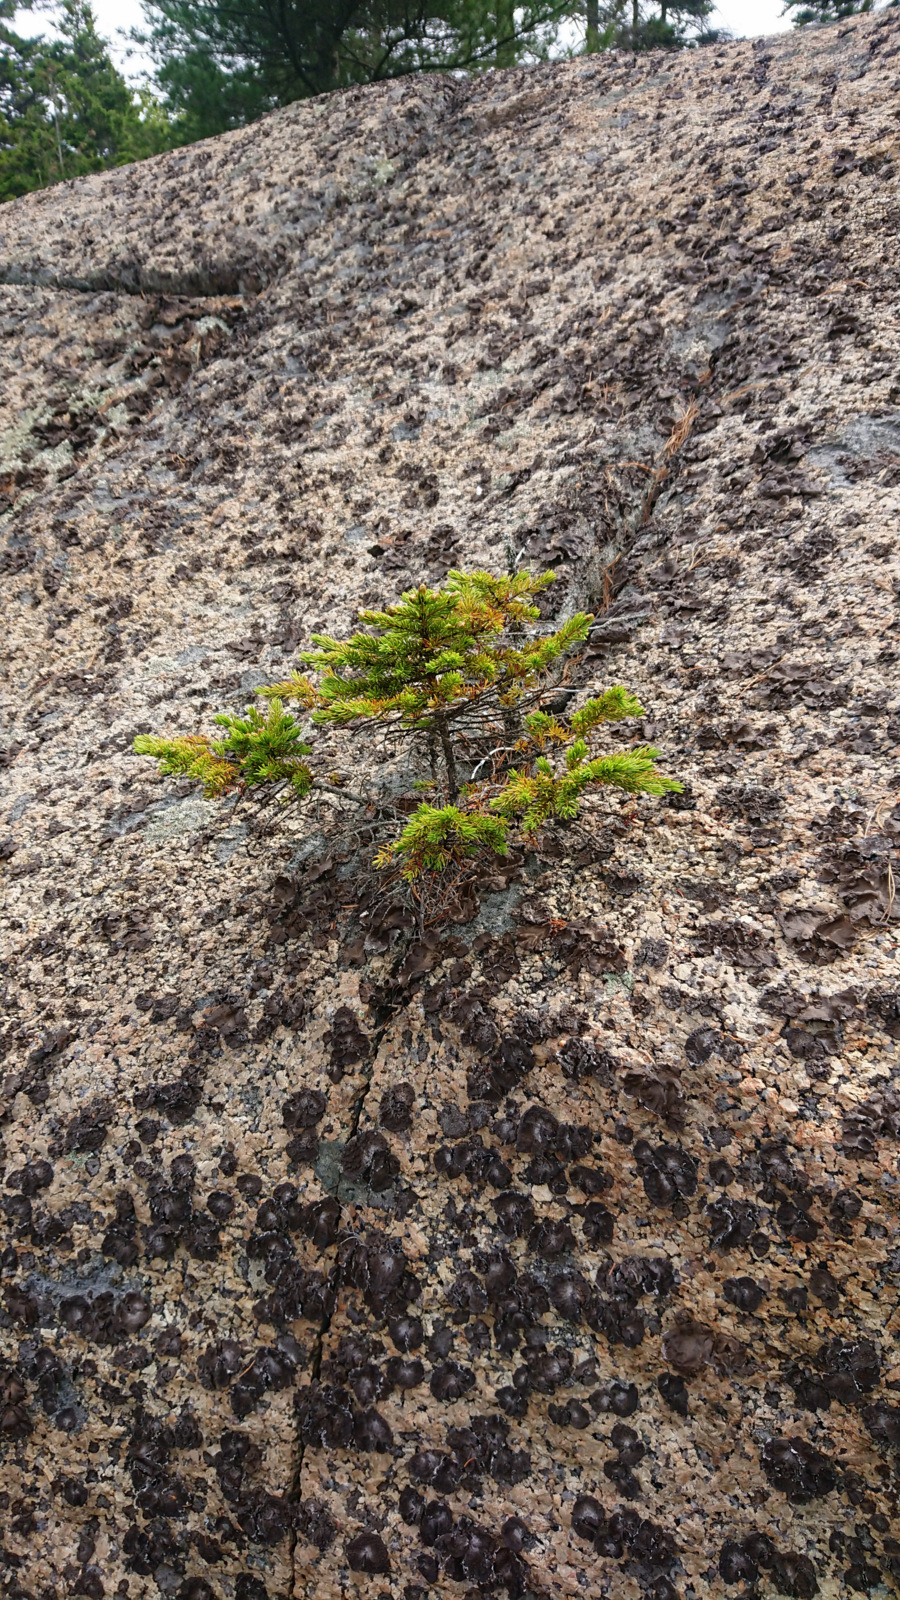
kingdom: Plantae
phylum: Tracheophyta
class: Pinopsida
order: Pinales
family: Pinaceae
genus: Picea
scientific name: Picea
